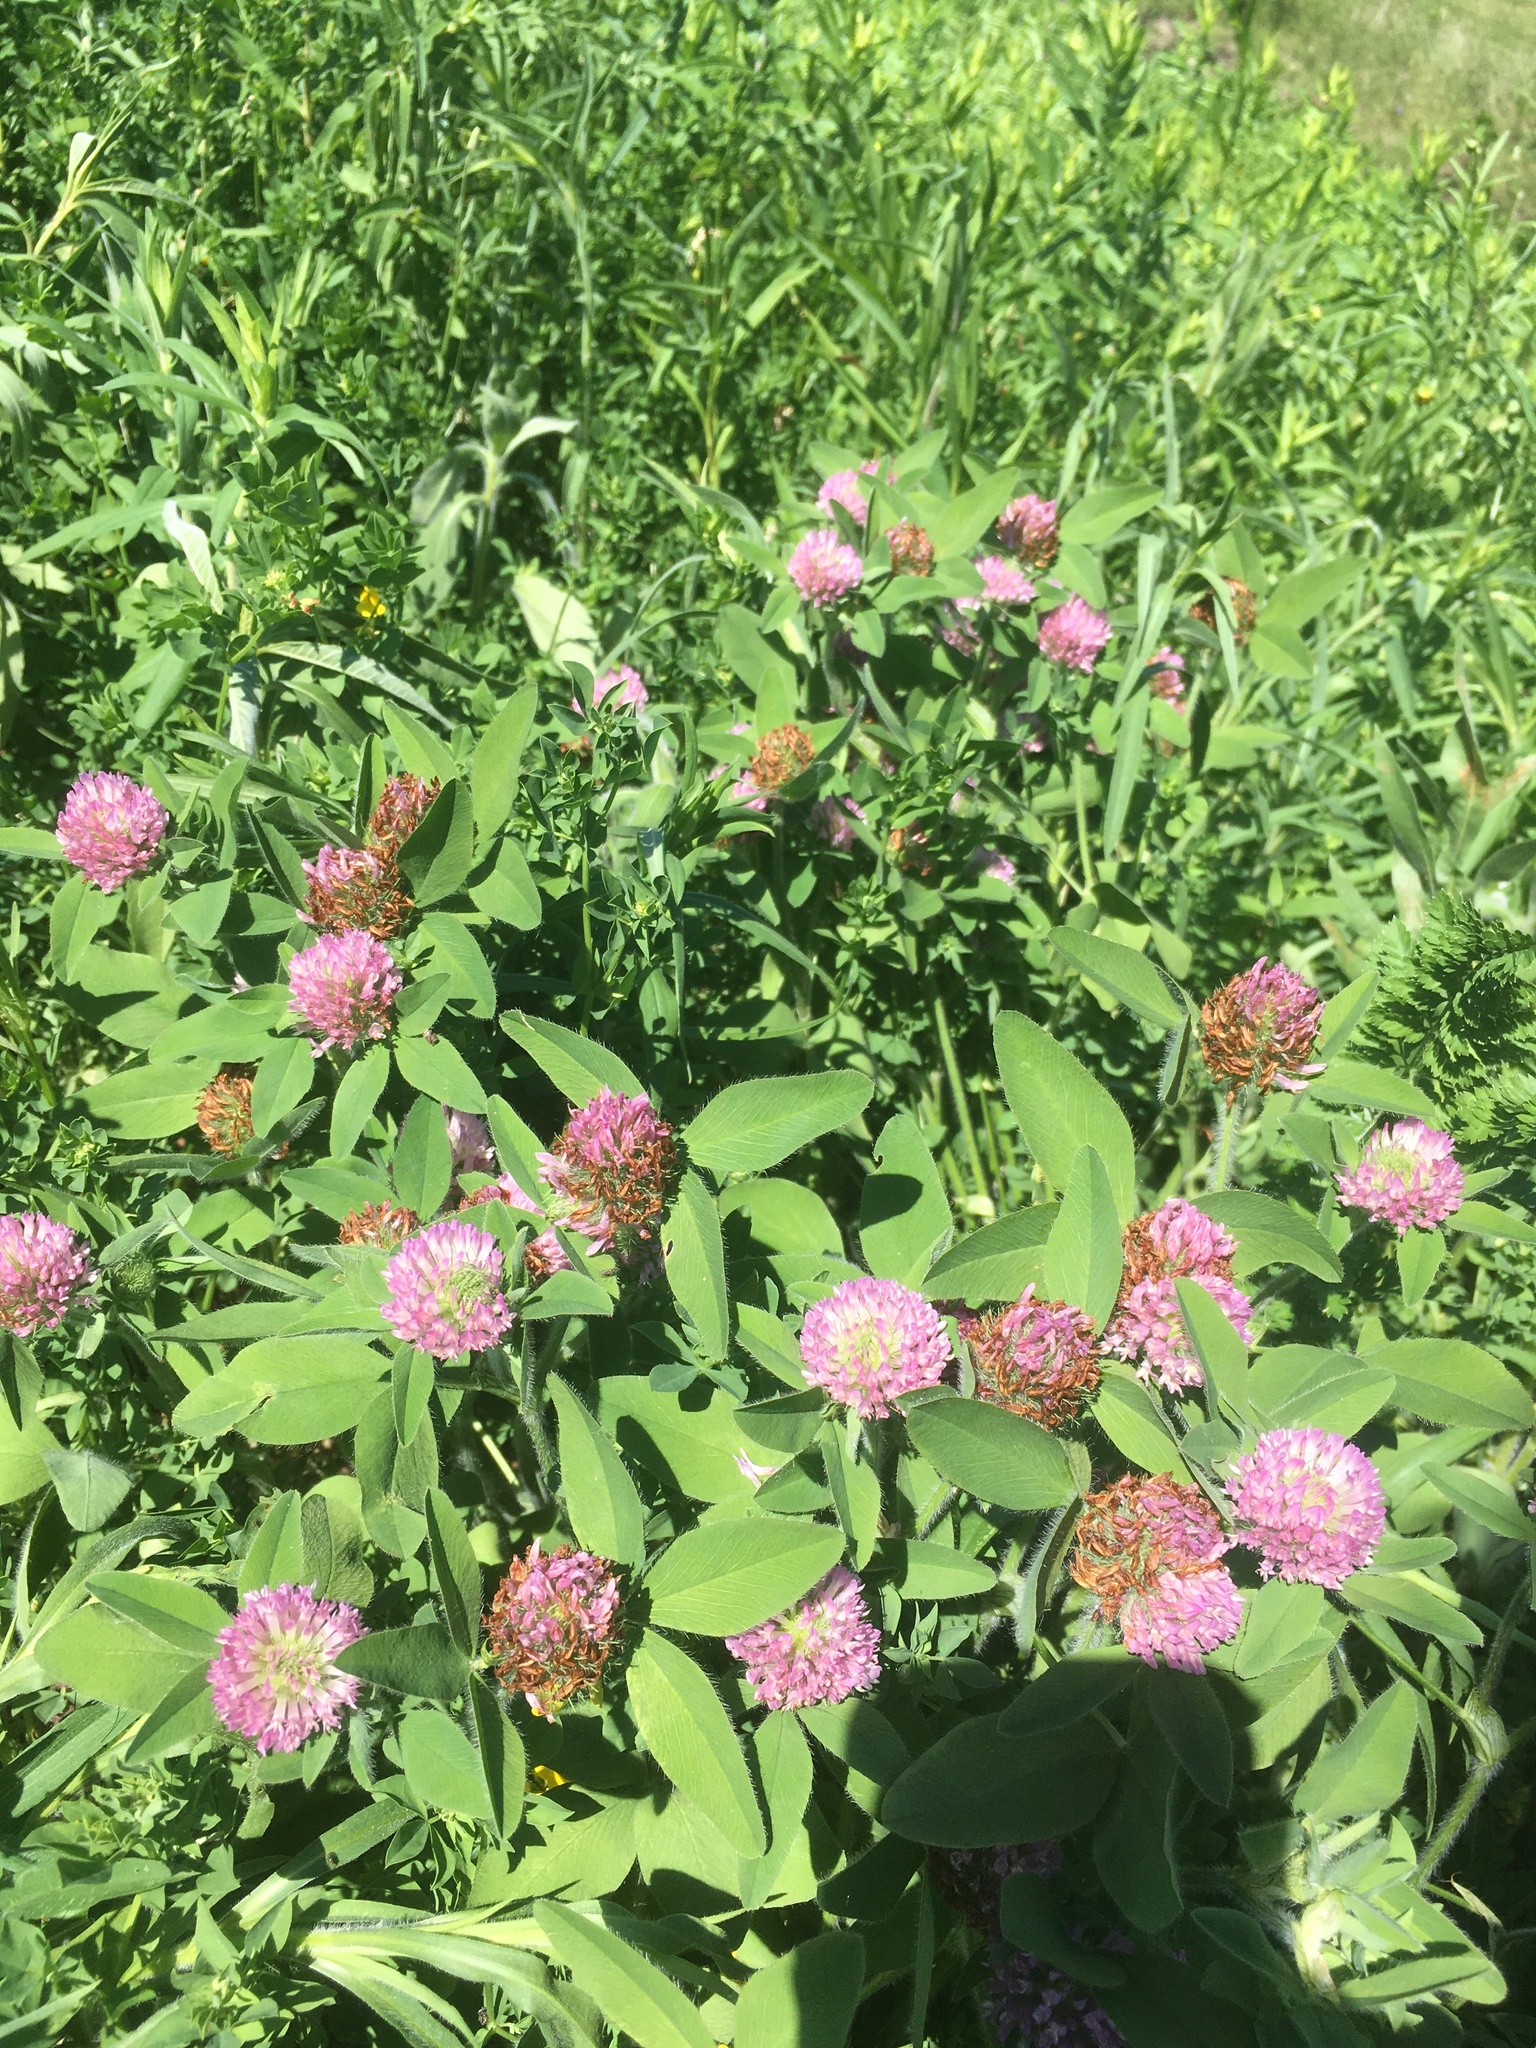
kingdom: Plantae
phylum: Tracheophyta
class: Magnoliopsida
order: Fabales
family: Fabaceae
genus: Trifolium
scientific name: Trifolium pratense
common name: Red clover
